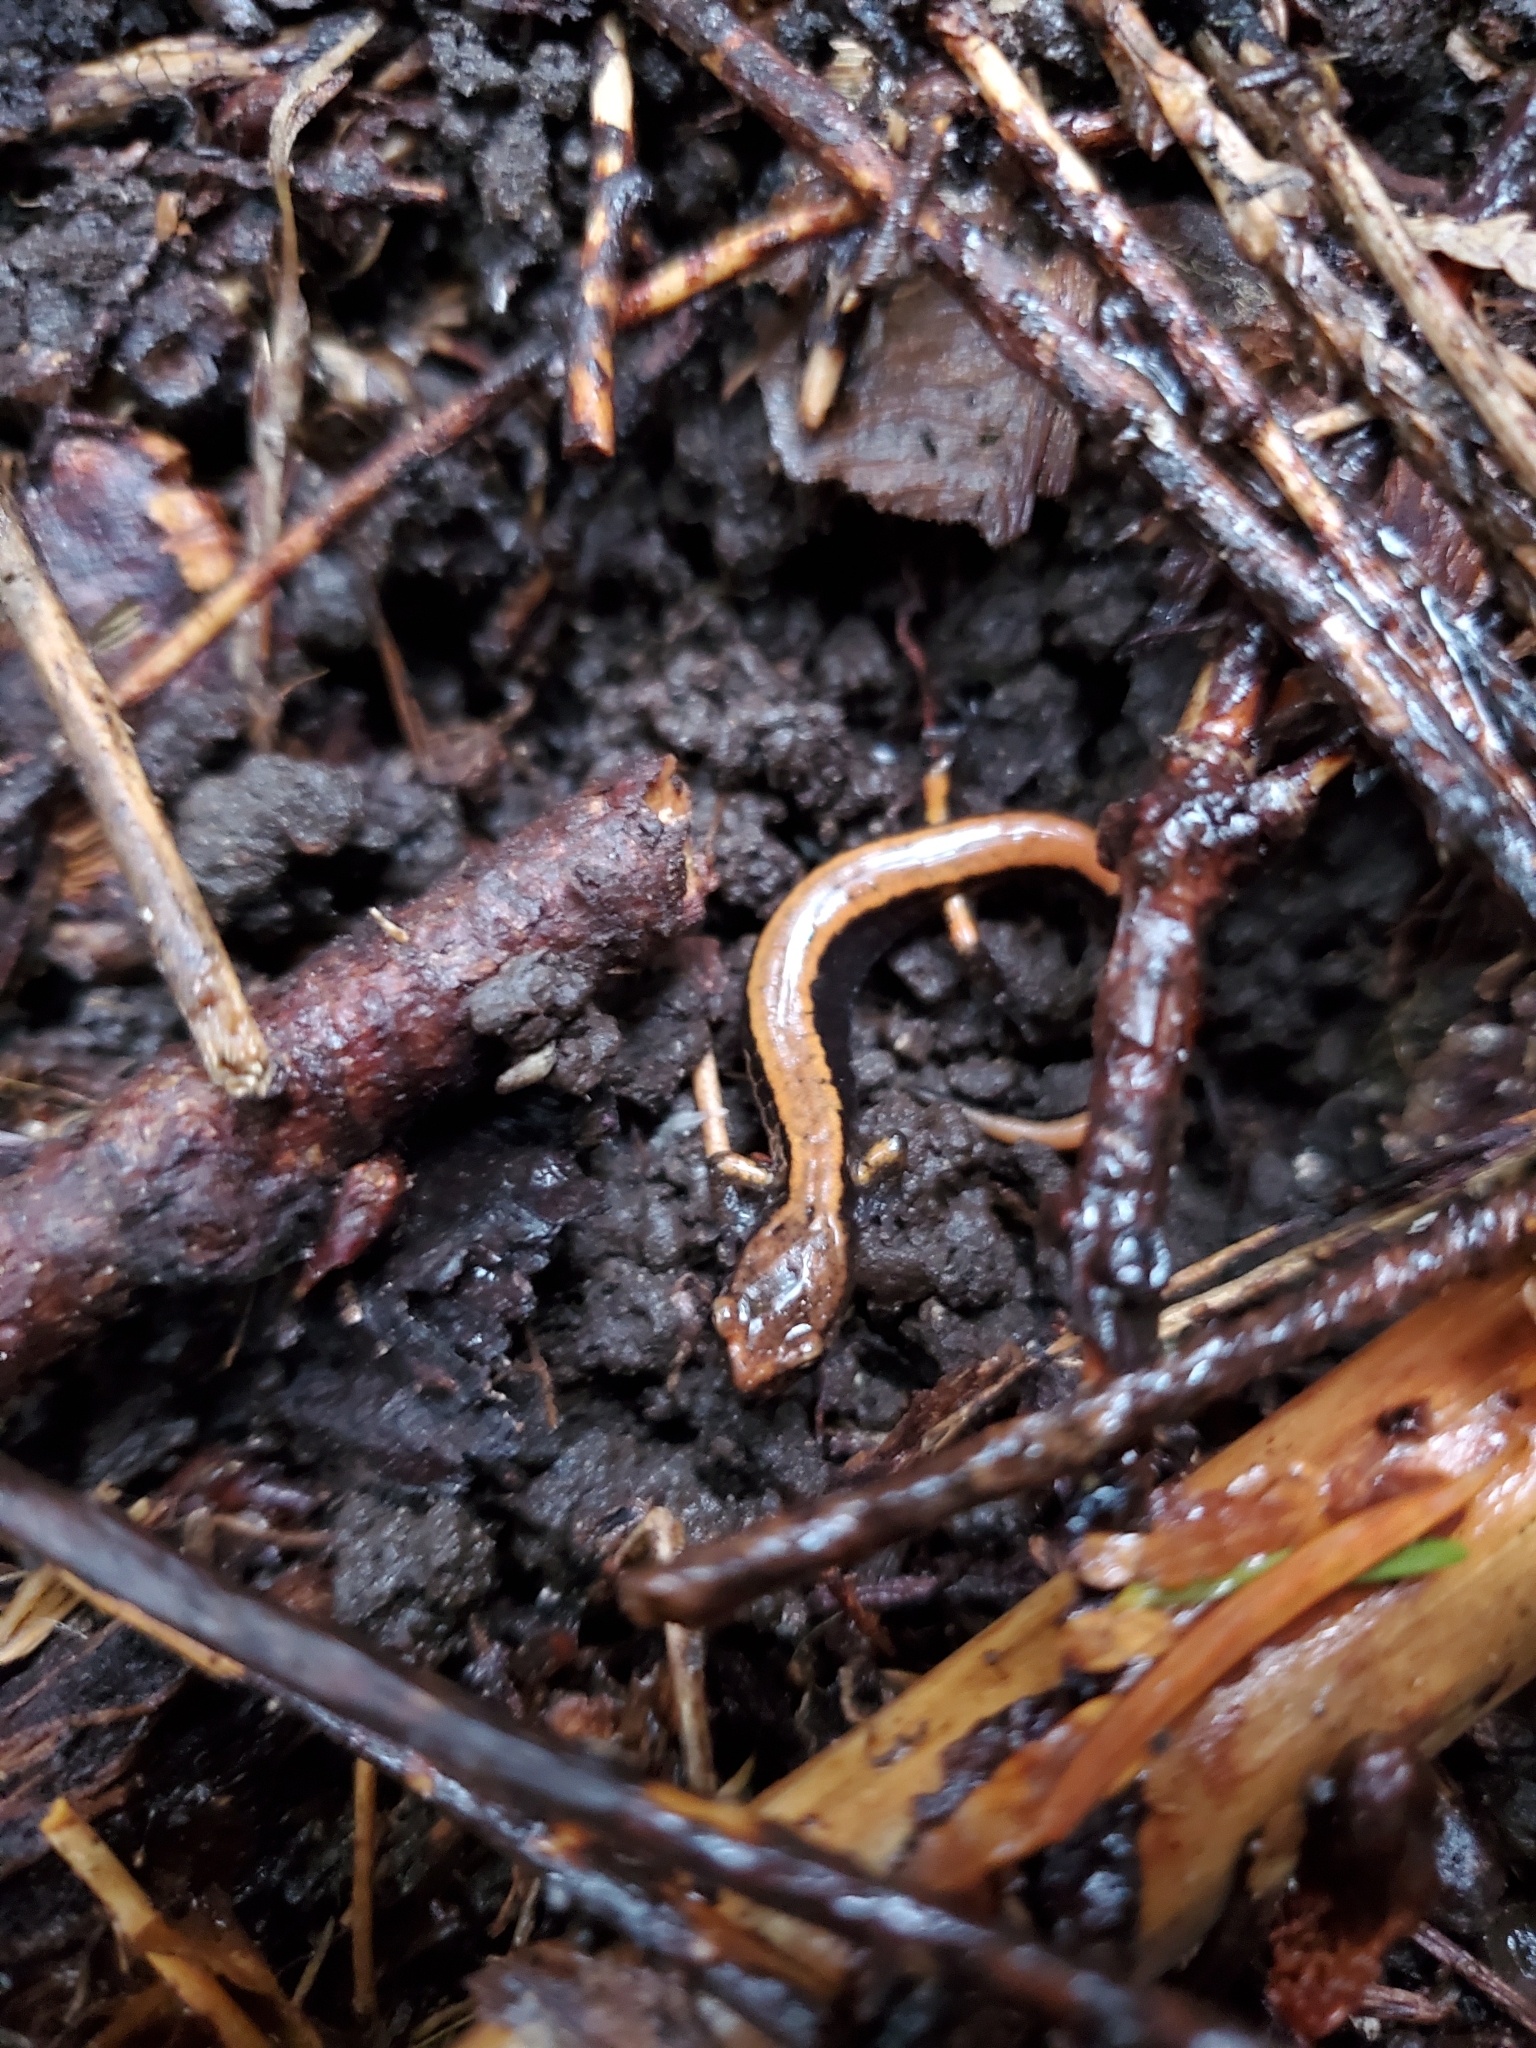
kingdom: Animalia
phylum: Chordata
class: Amphibia
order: Caudata
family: Plethodontidae
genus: Plethodon
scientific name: Plethodon vehiculum
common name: Western red-backed salamander
